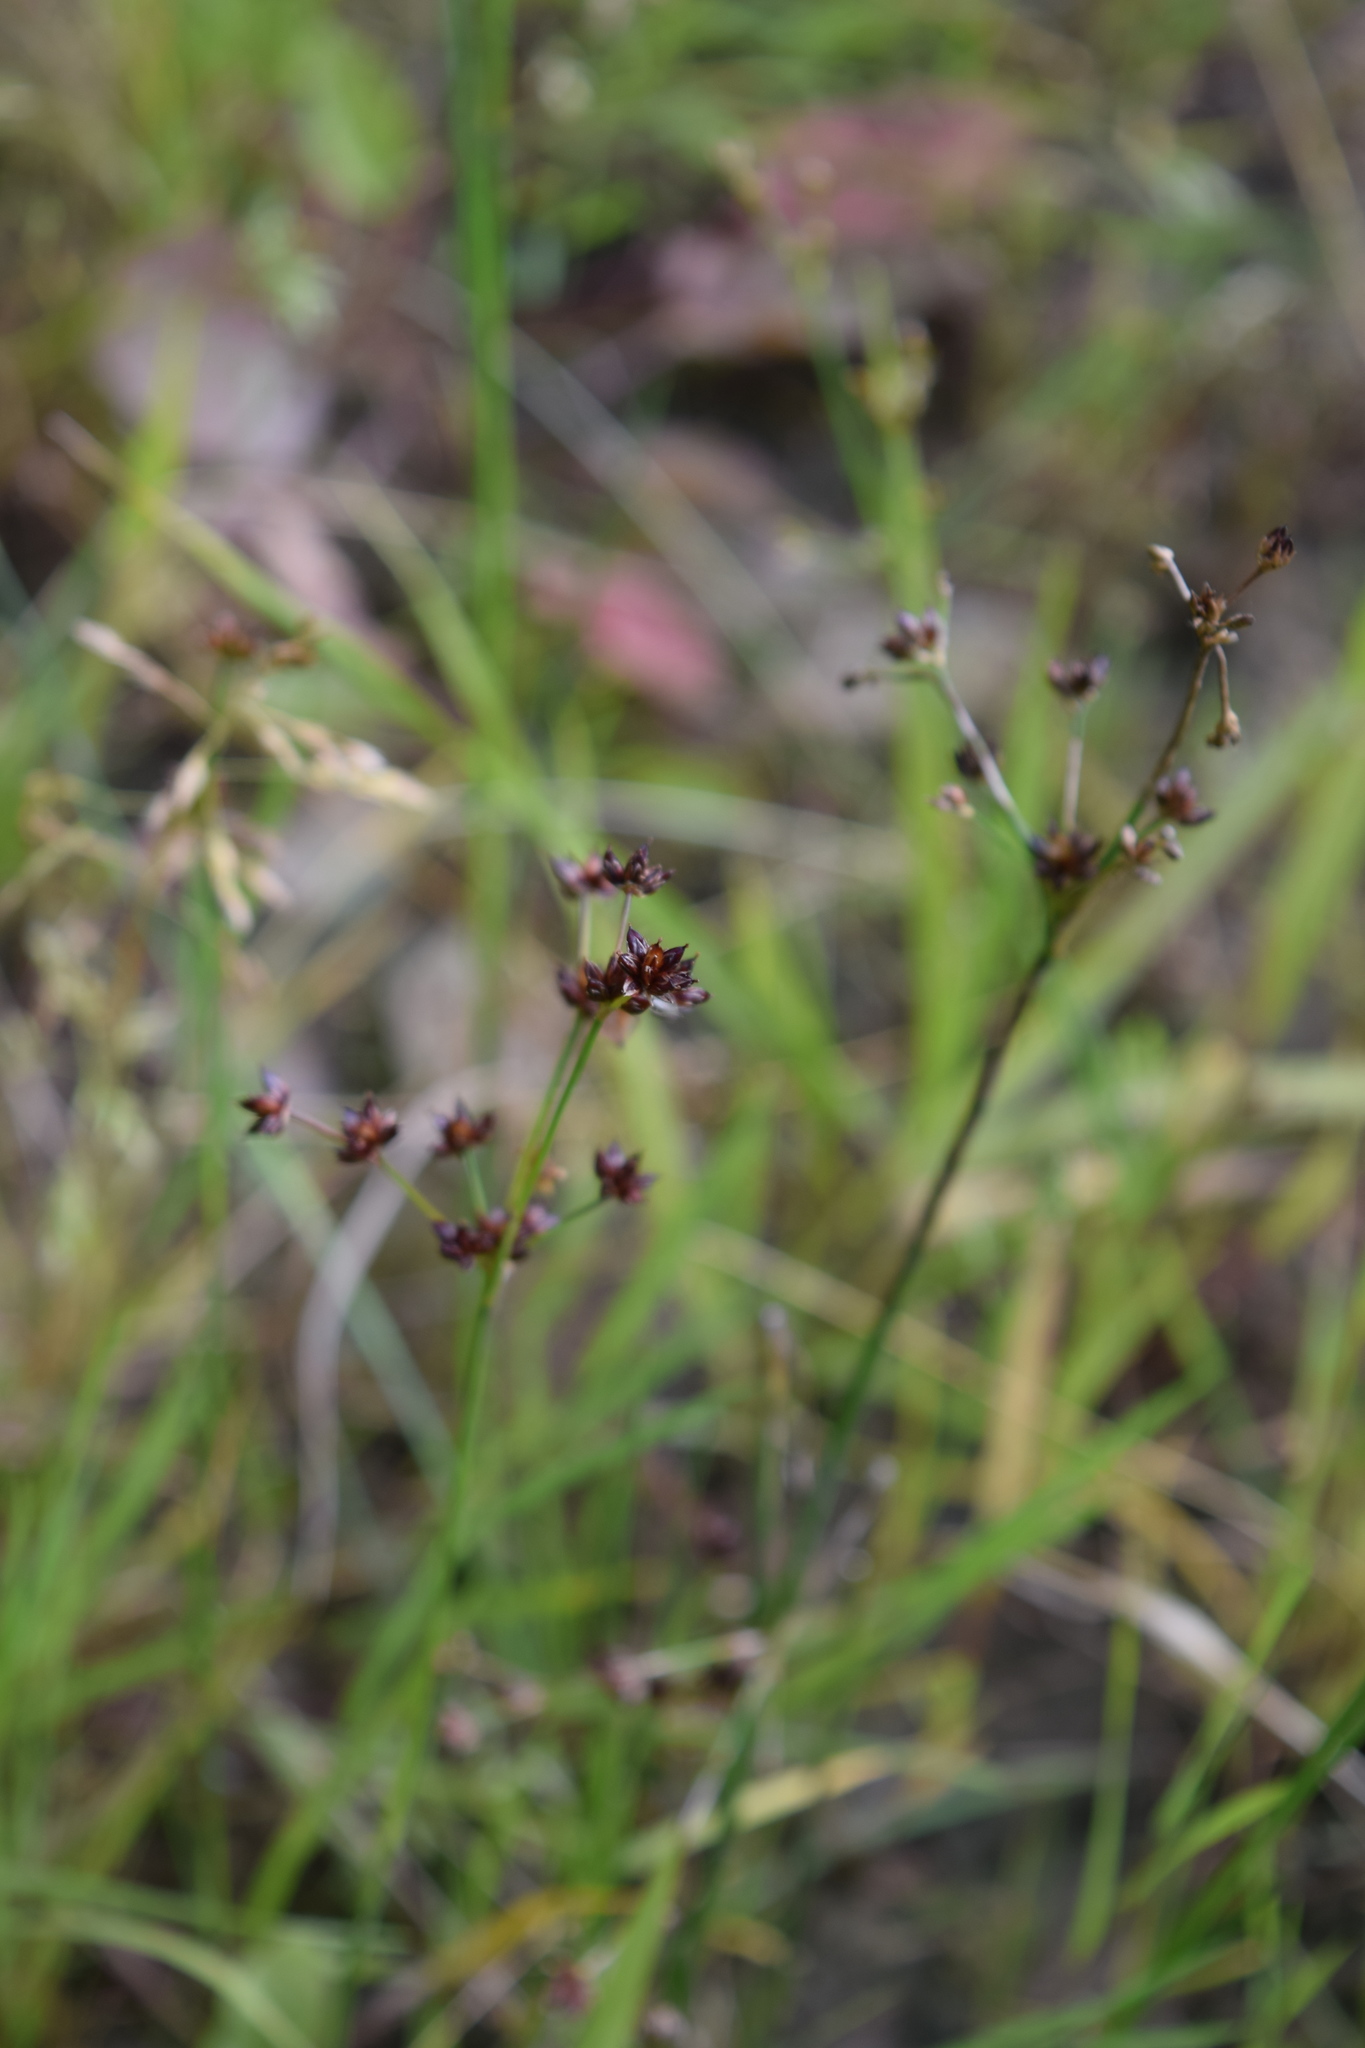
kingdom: Plantae
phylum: Tracheophyta
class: Liliopsida
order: Poales
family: Juncaceae
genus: Juncus
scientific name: Juncus articulatus
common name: Jointed rush
